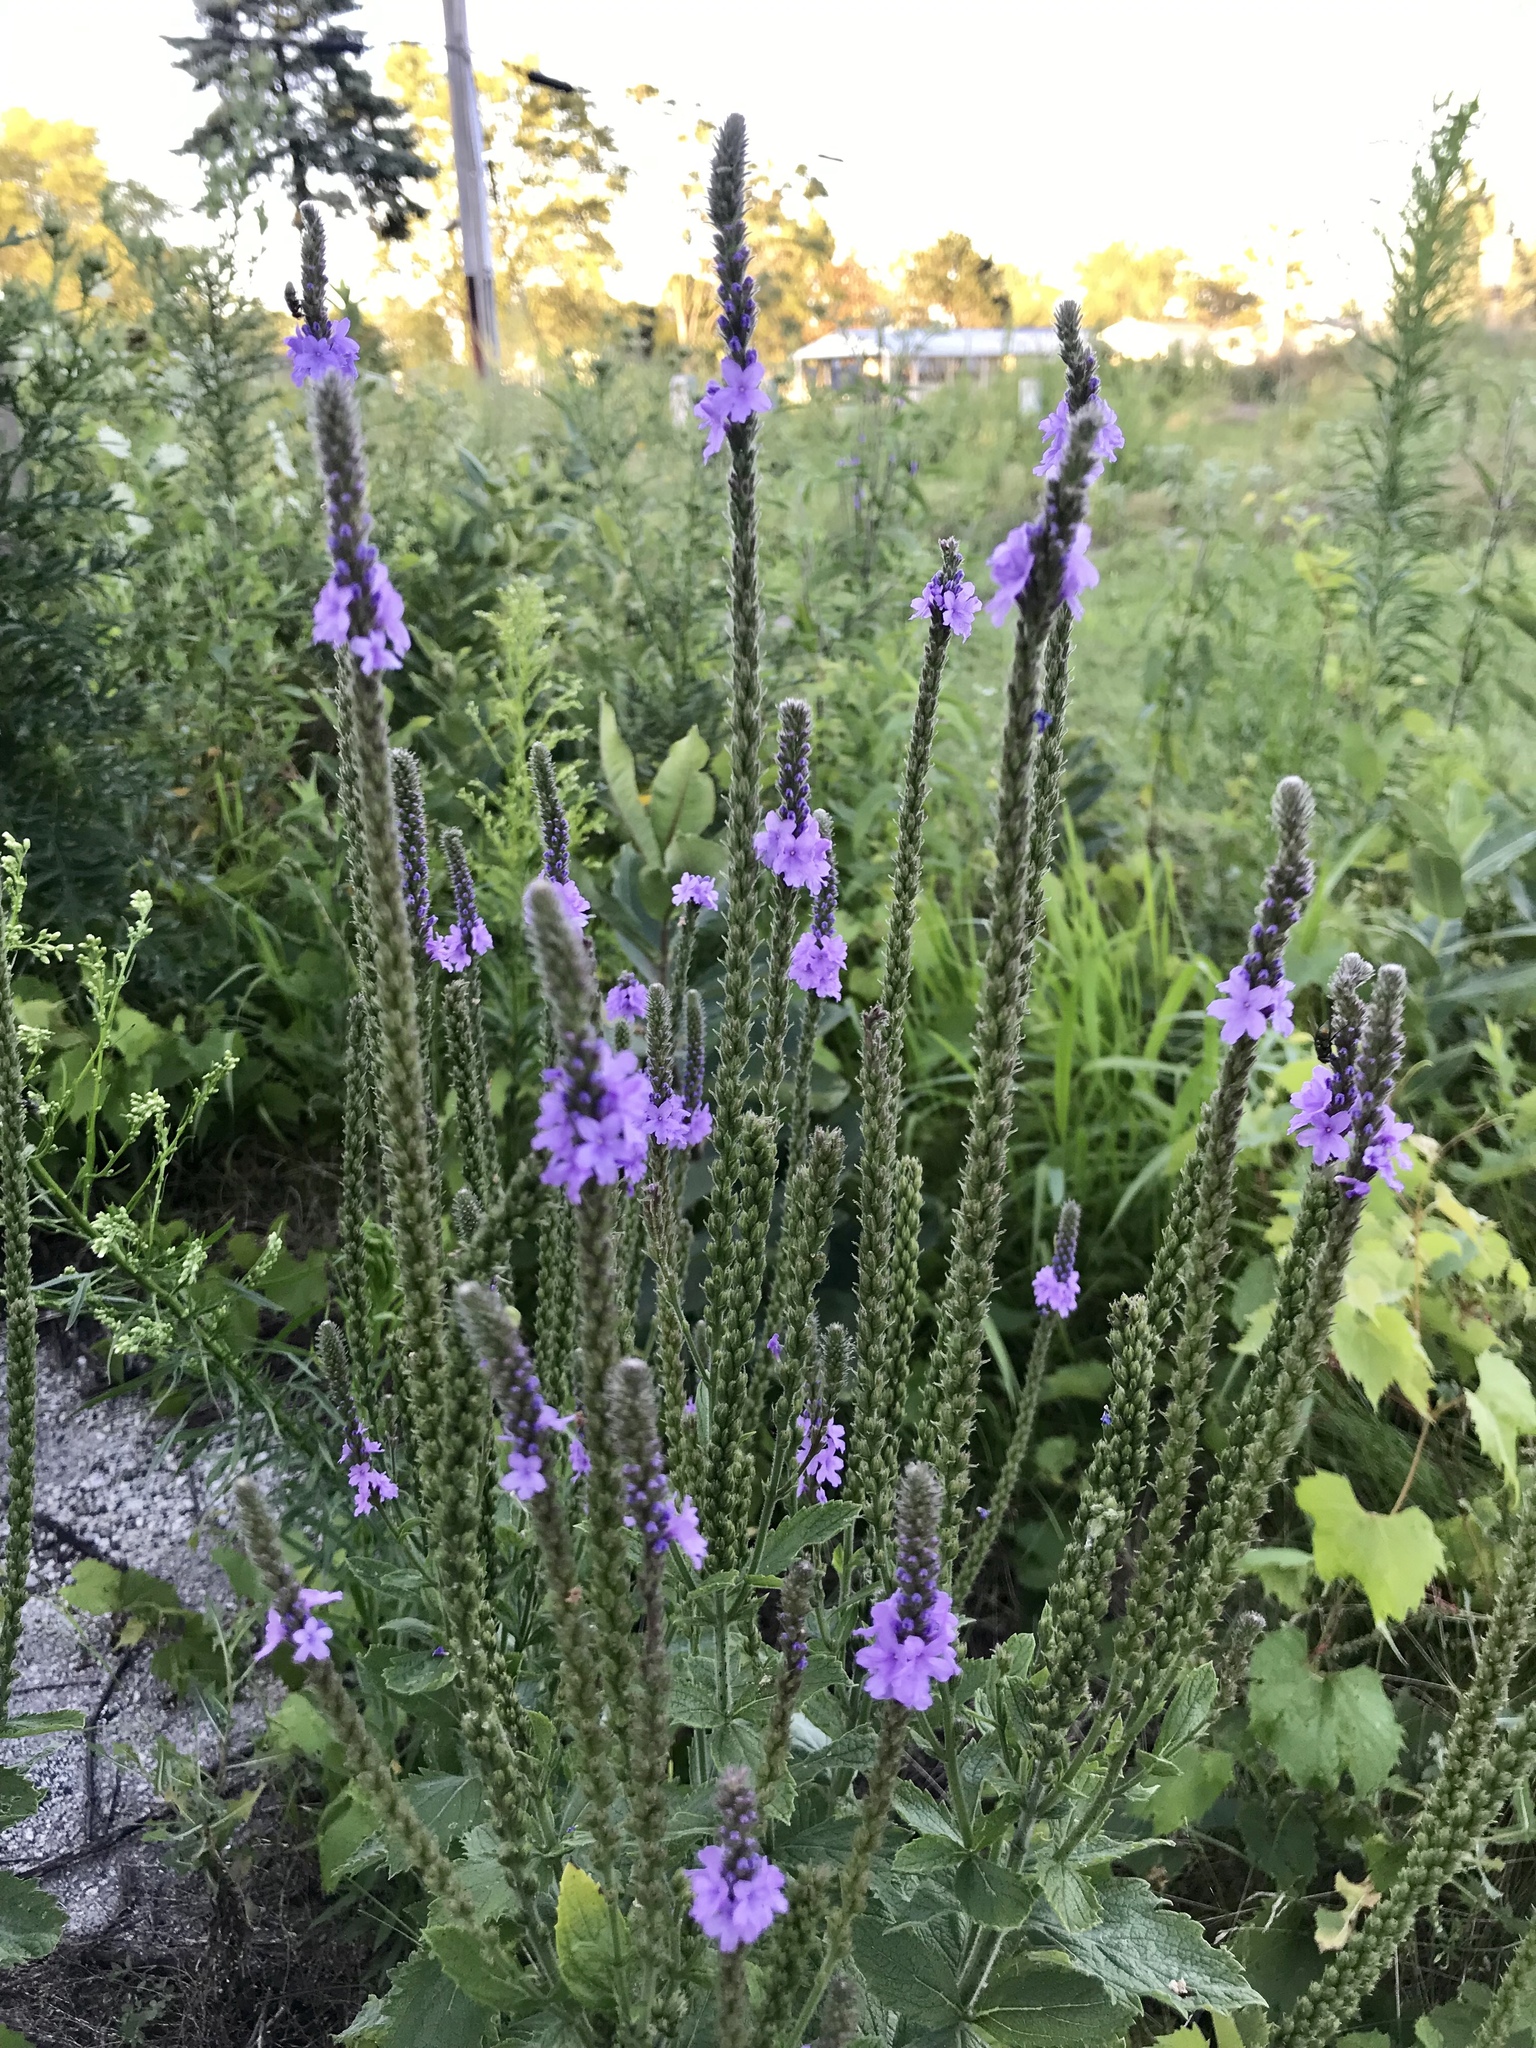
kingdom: Plantae
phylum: Tracheophyta
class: Magnoliopsida
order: Lamiales
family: Verbenaceae
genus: Verbena
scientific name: Verbena stricta
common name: Hoary vervain
